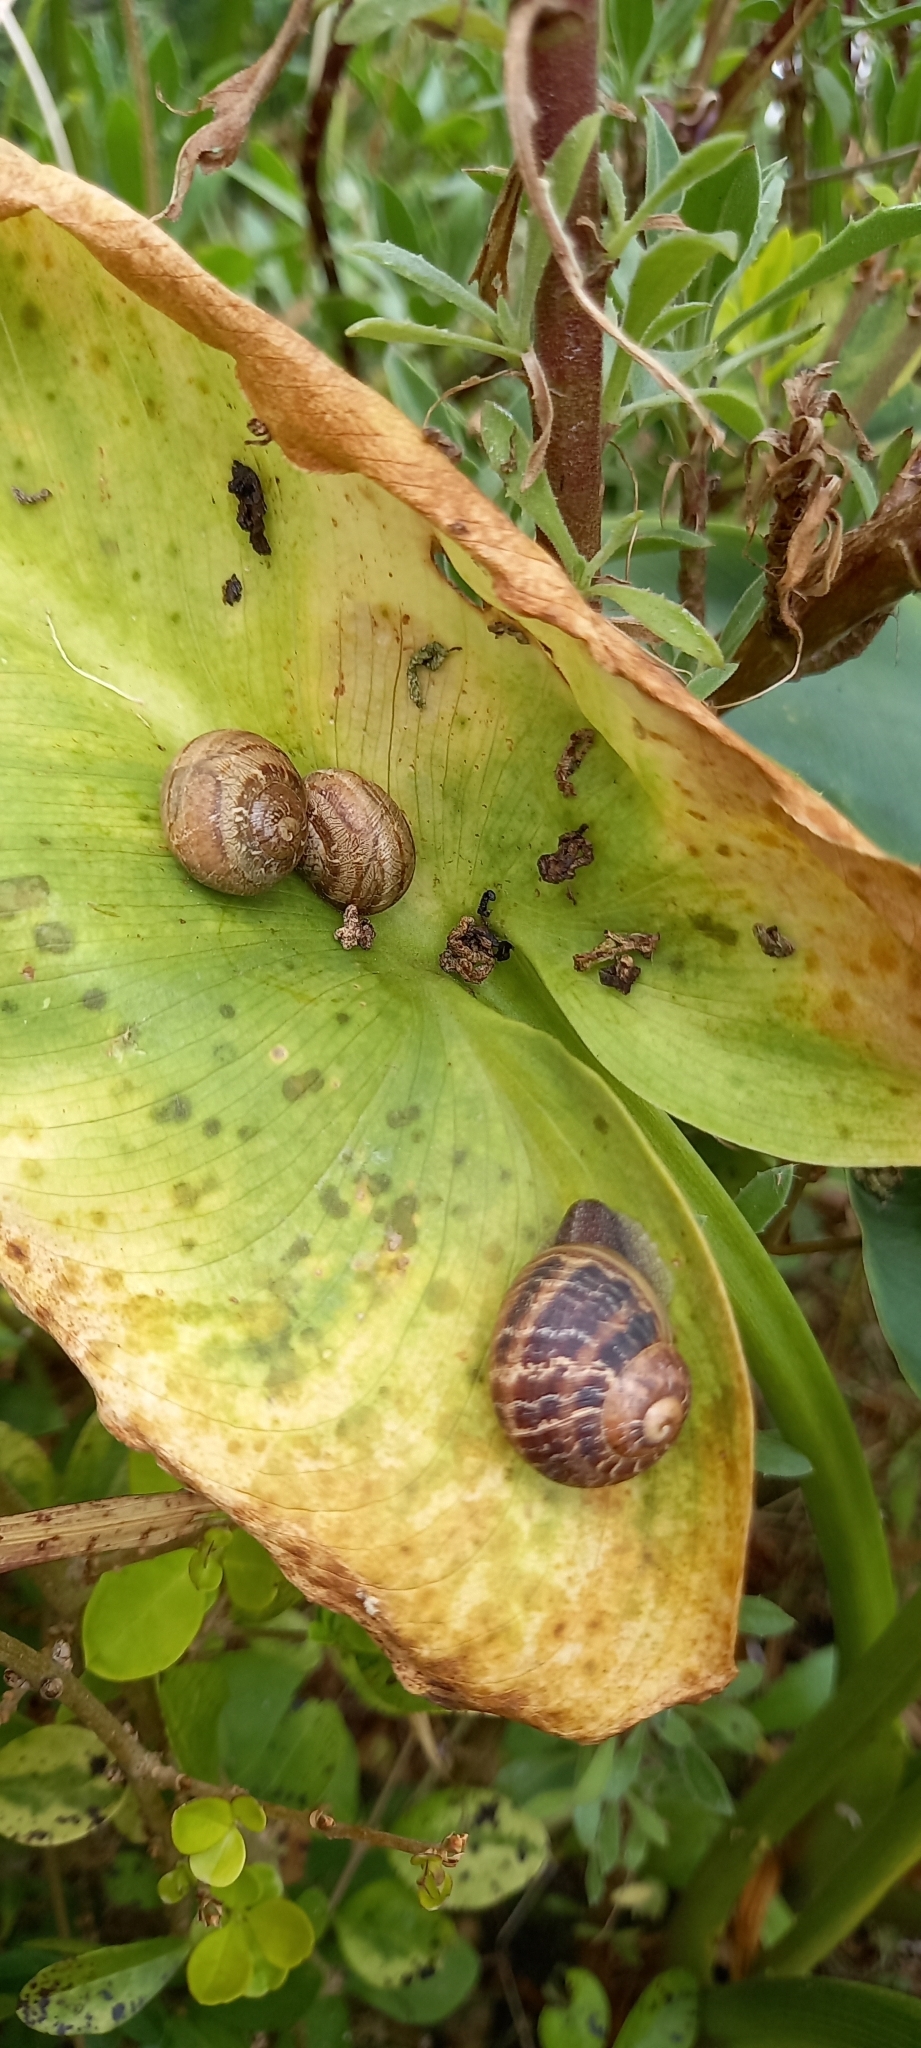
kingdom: Animalia
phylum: Mollusca
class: Gastropoda
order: Stylommatophora
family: Helicidae
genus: Cornu
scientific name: Cornu aspersum
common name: Brown garden snail
